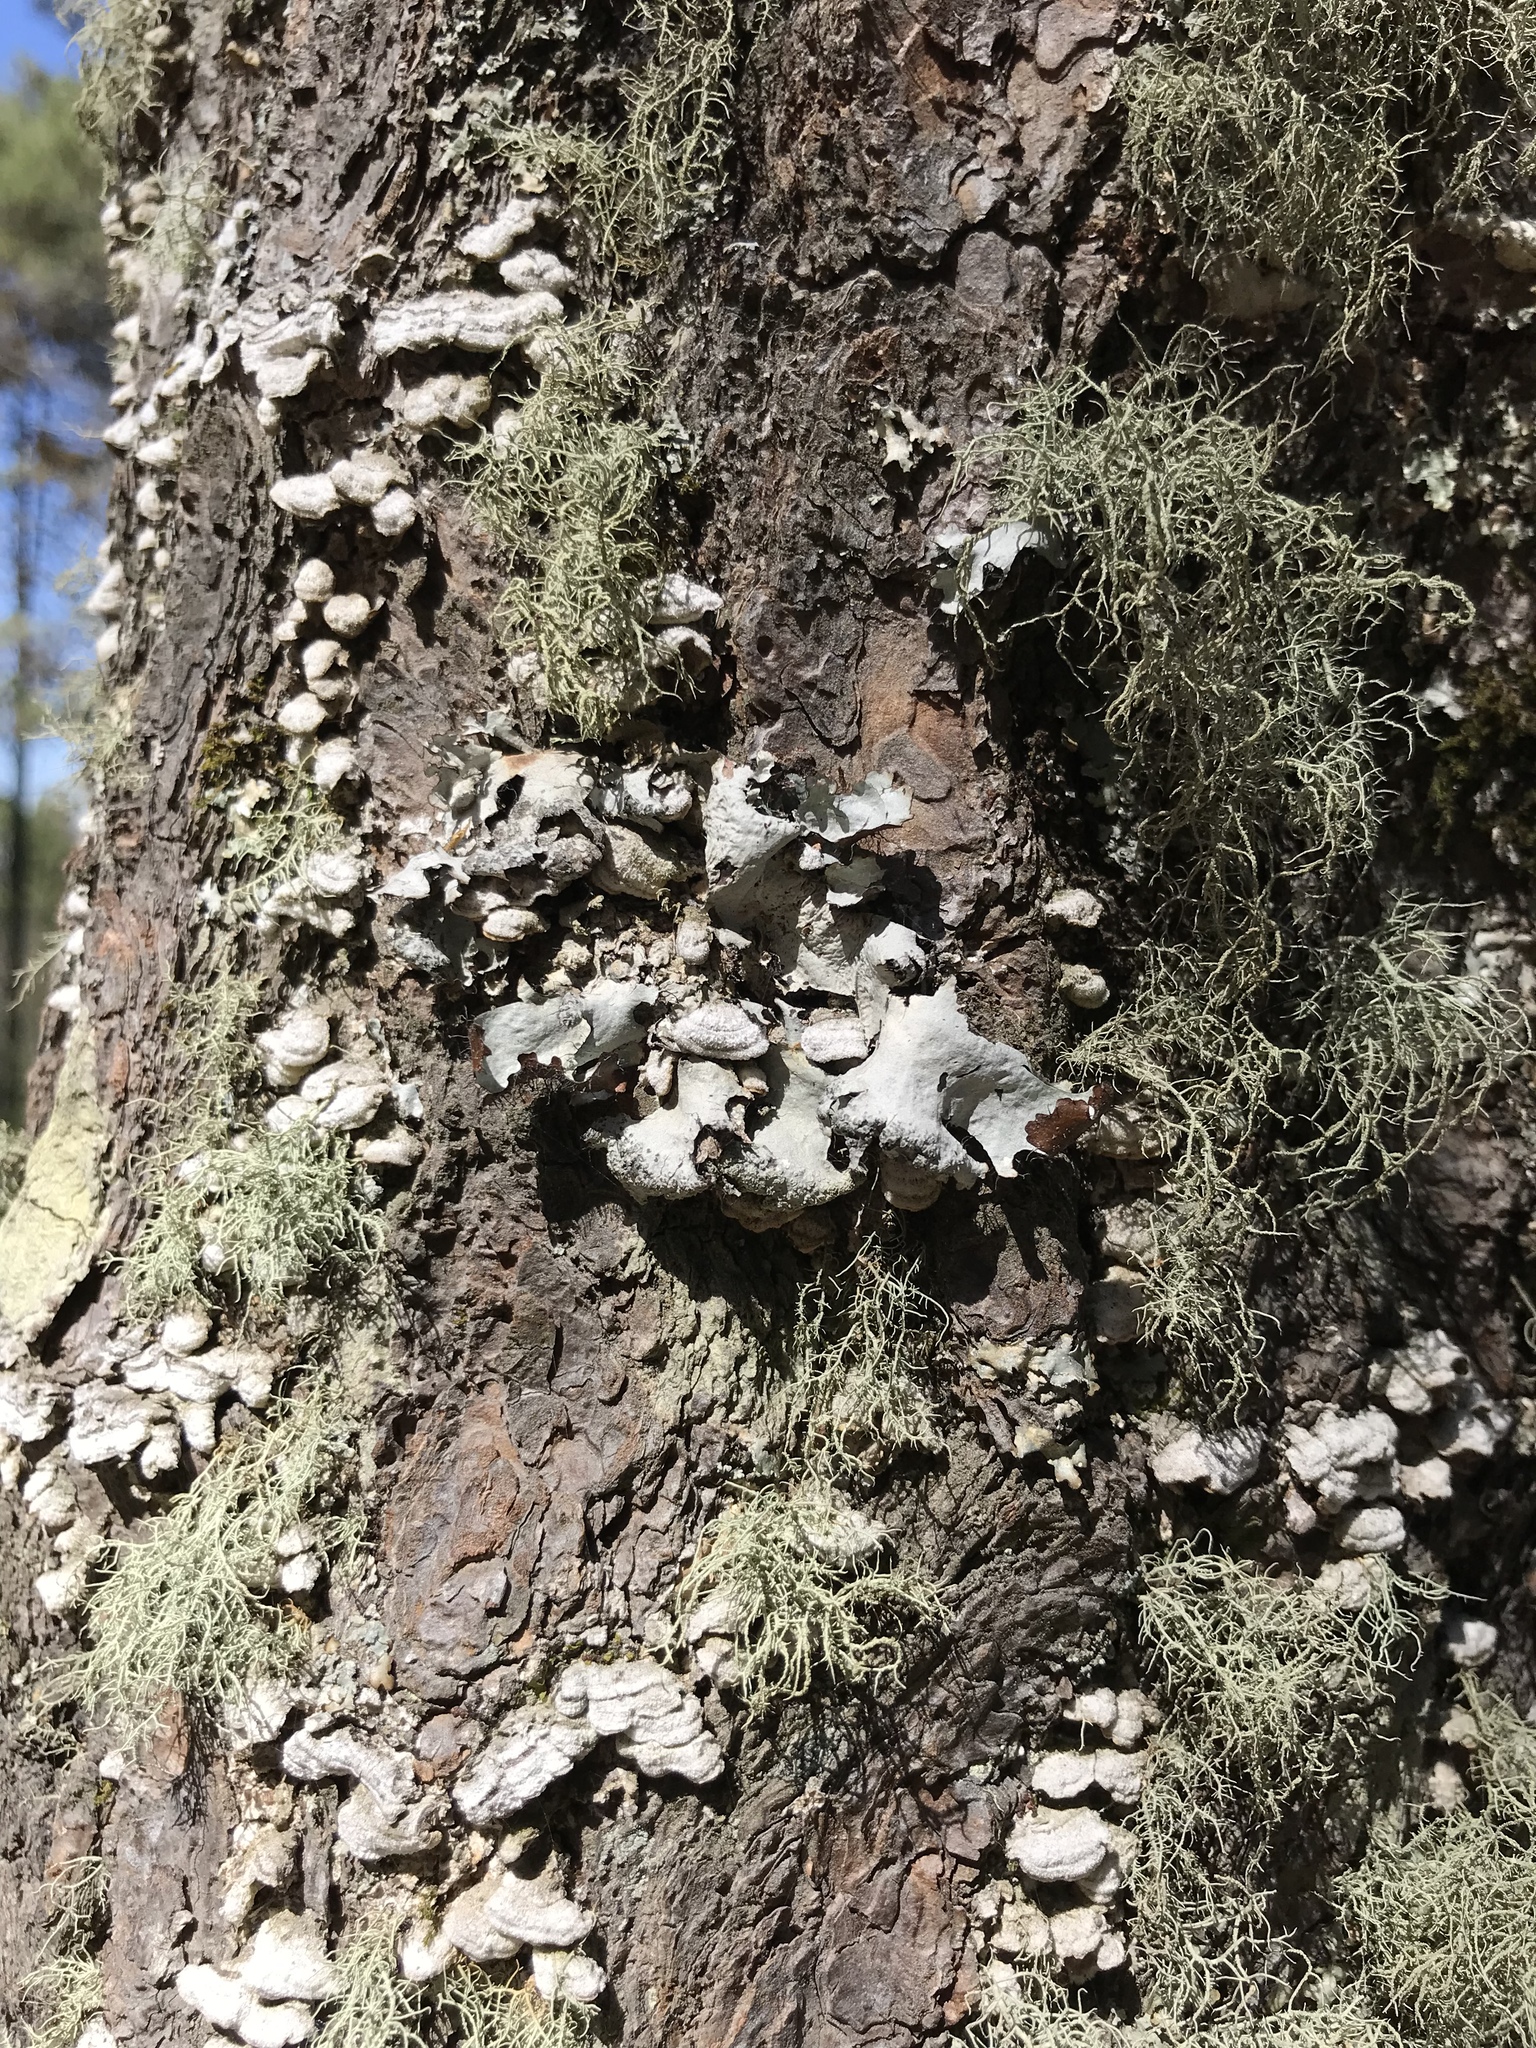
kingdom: Fungi
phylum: Basidiomycota
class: Agaricomycetes
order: Hymenochaetales
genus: Trichaptum
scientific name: Trichaptum abietinum
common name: Purplepore bracket
